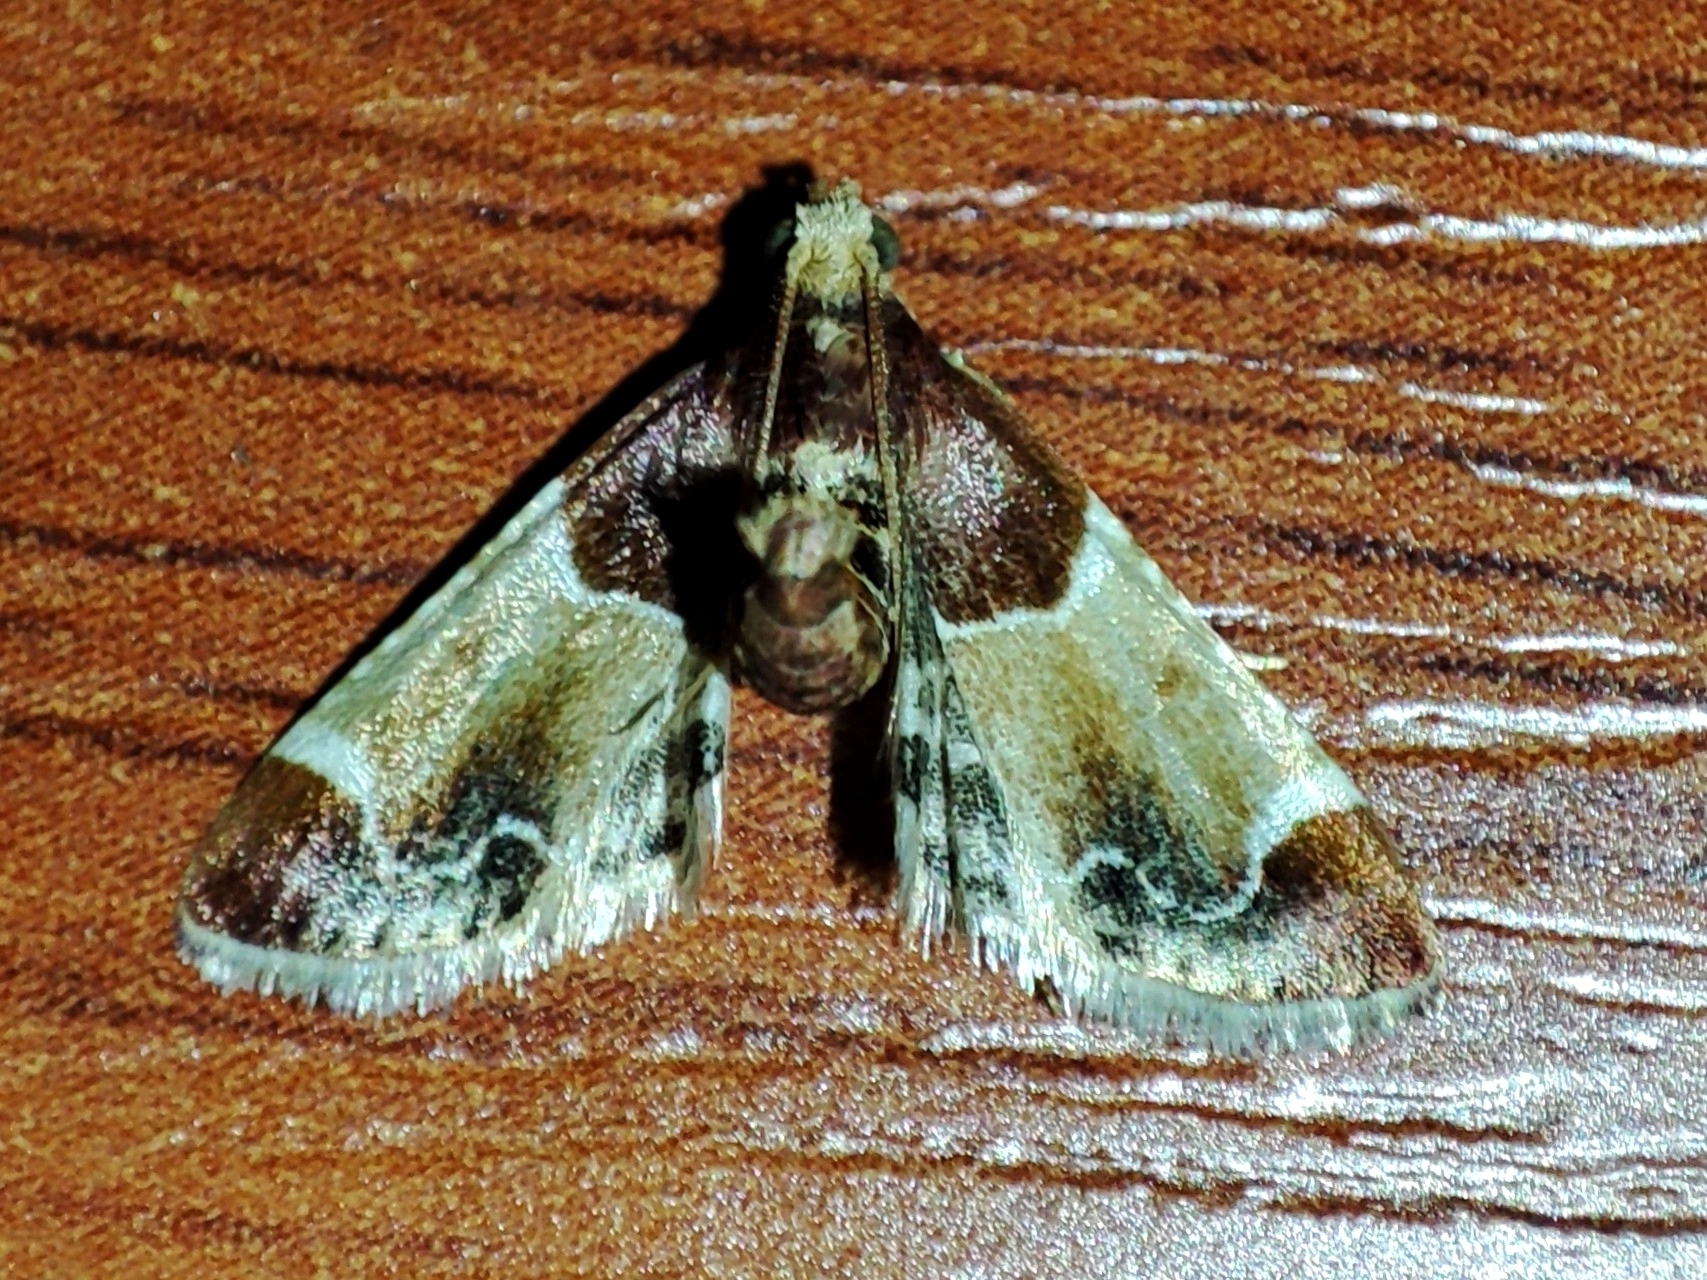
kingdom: Animalia
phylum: Arthropoda
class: Insecta
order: Lepidoptera
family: Pyralidae
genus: Pyralis
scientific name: Pyralis farinalis
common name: Meal moth
